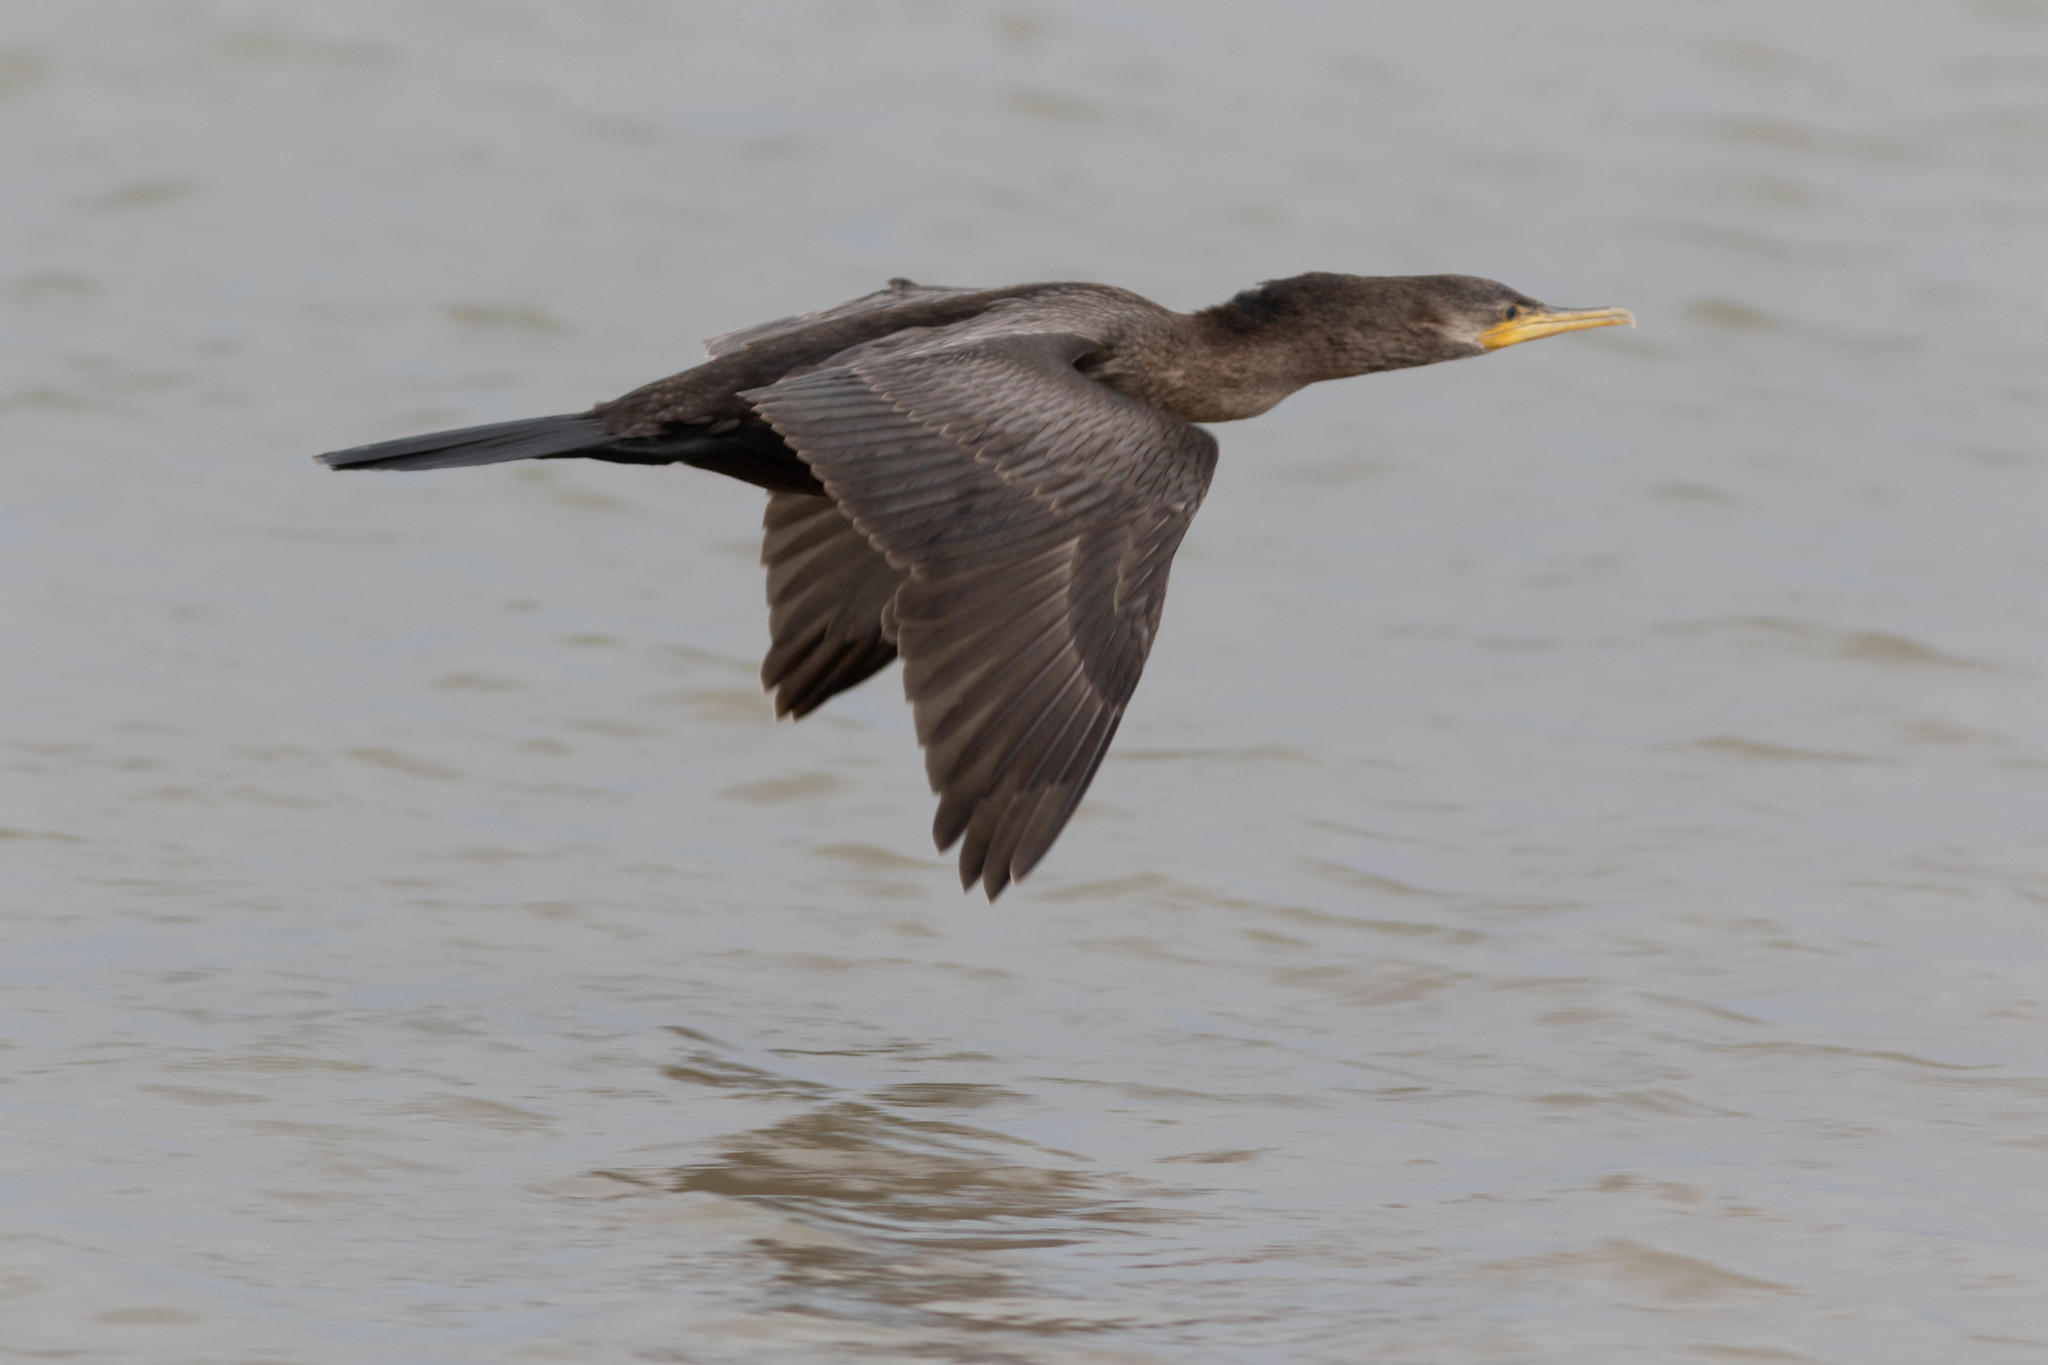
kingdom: Animalia
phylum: Chordata
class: Aves
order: Suliformes
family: Phalacrocoracidae
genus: Phalacrocorax
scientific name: Phalacrocorax brasilianus
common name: Neotropic cormorant
